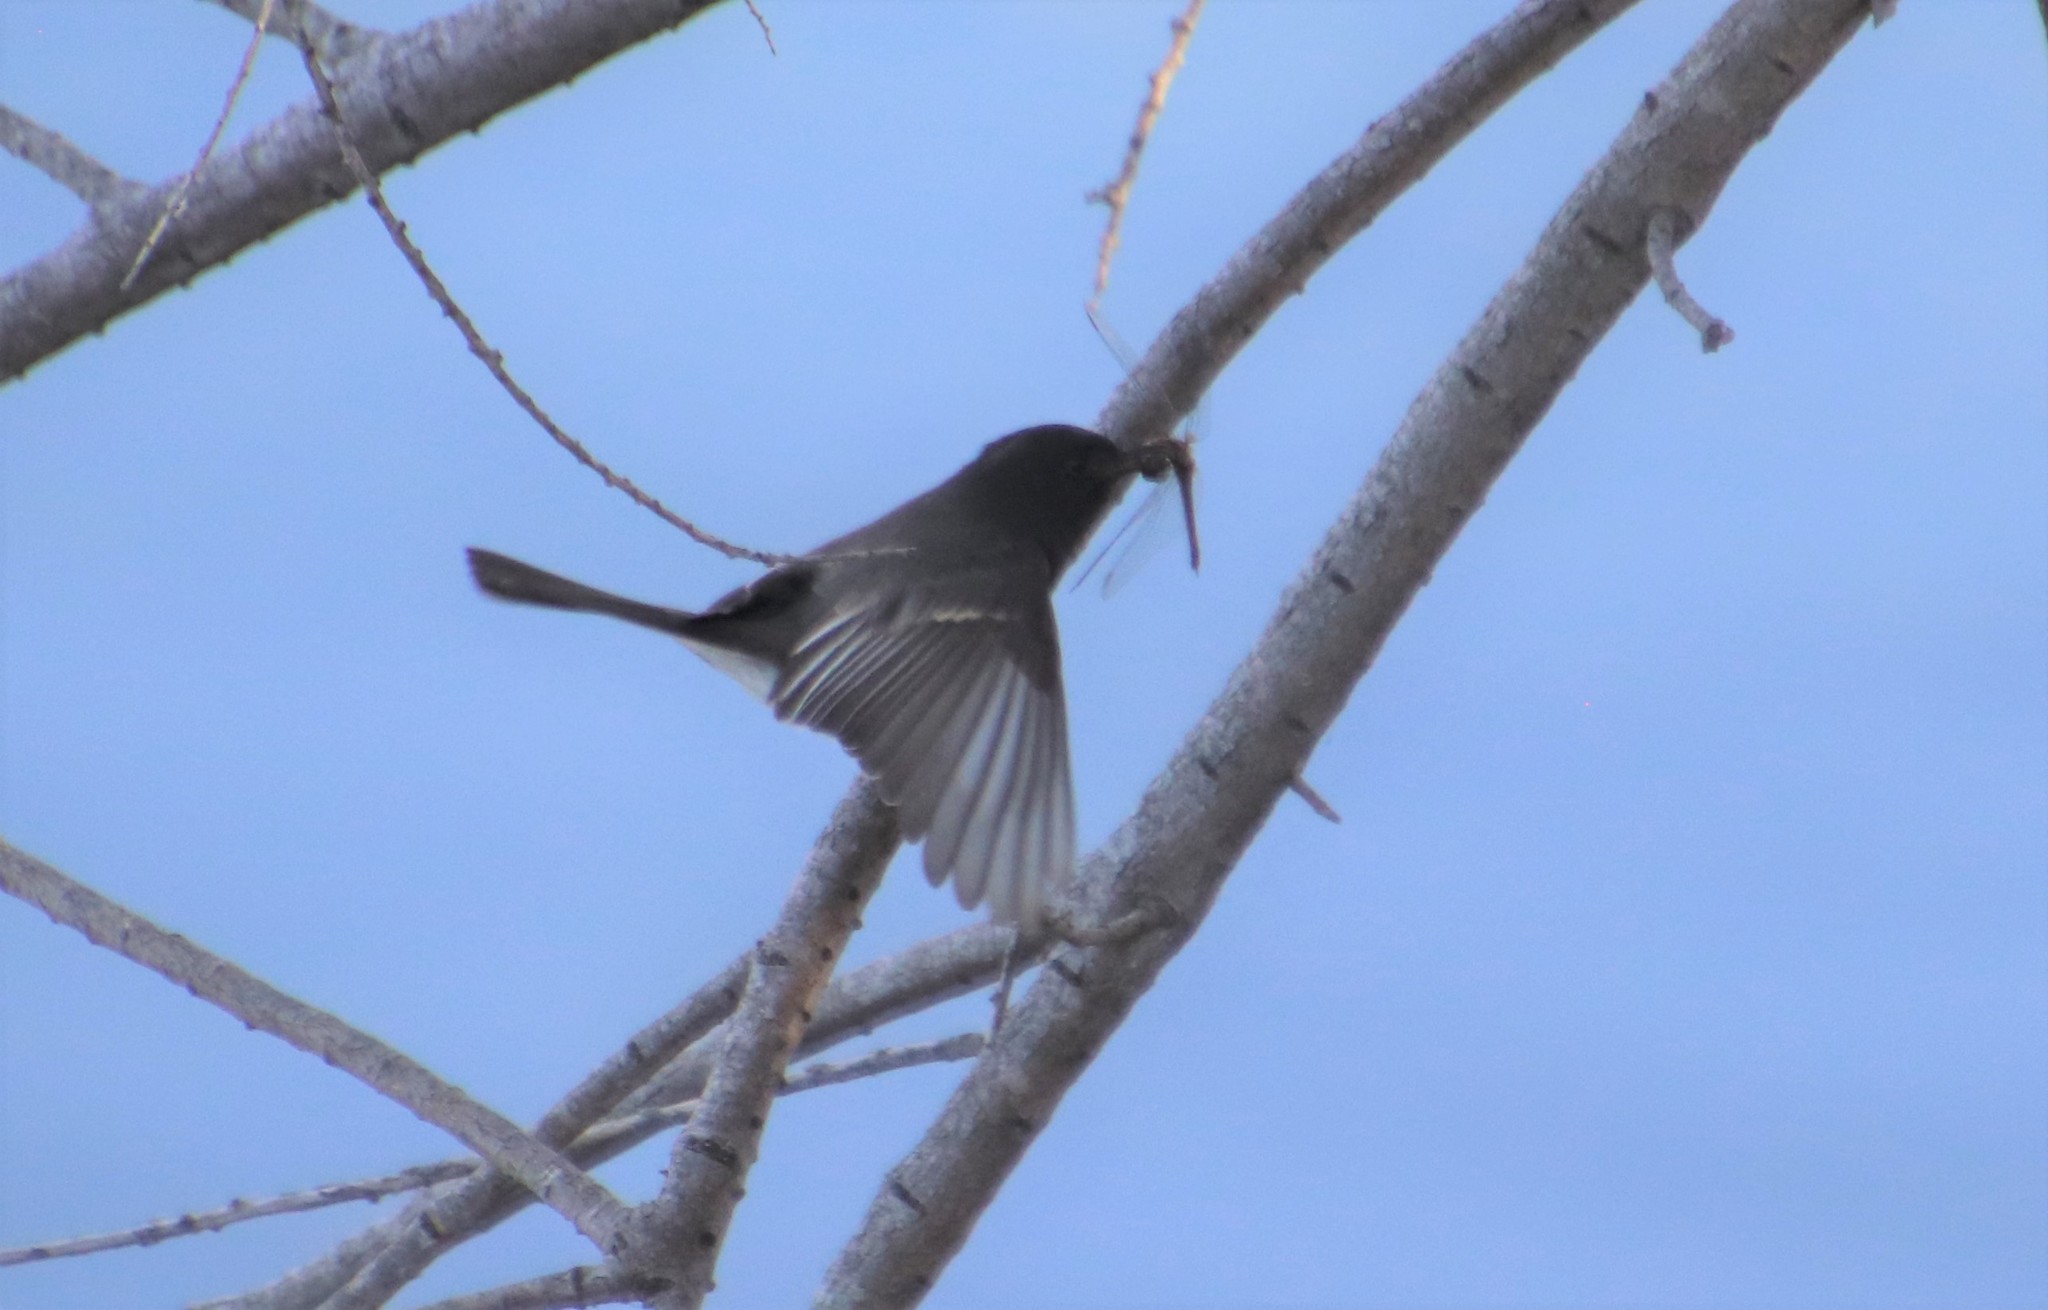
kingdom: Animalia
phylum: Chordata
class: Aves
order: Passeriformes
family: Tyrannidae
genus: Sayornis
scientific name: Sayornis nigricans
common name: Black phoebe
